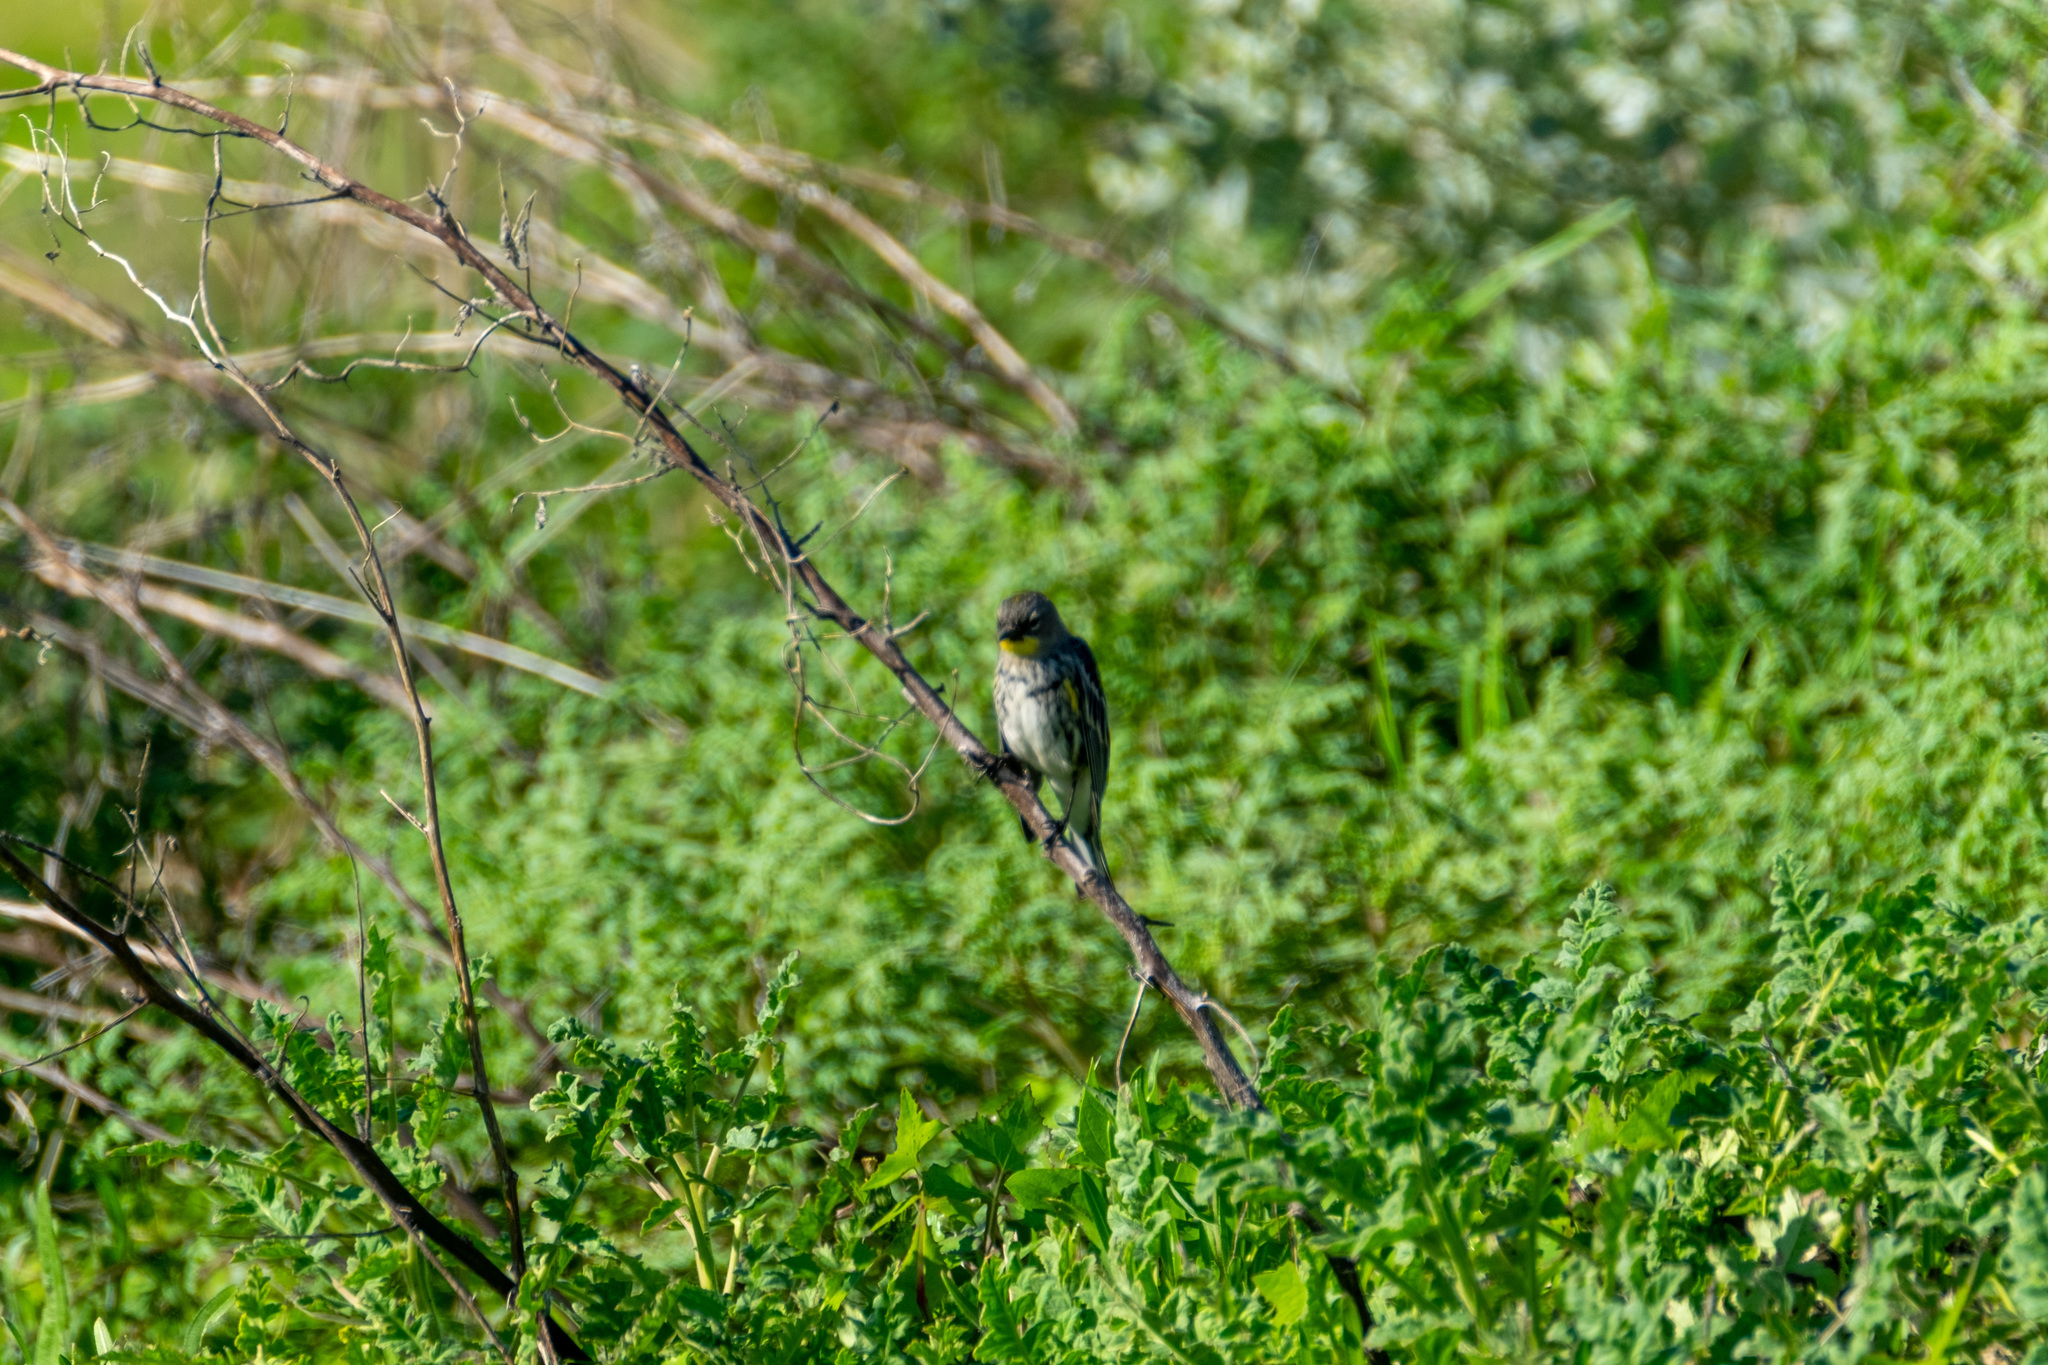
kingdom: Animalia
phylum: Chordata
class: Aves
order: Passeriformes
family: Parulidae
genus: Setophaga
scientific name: Setophaga coronata
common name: Myrtle warbler
